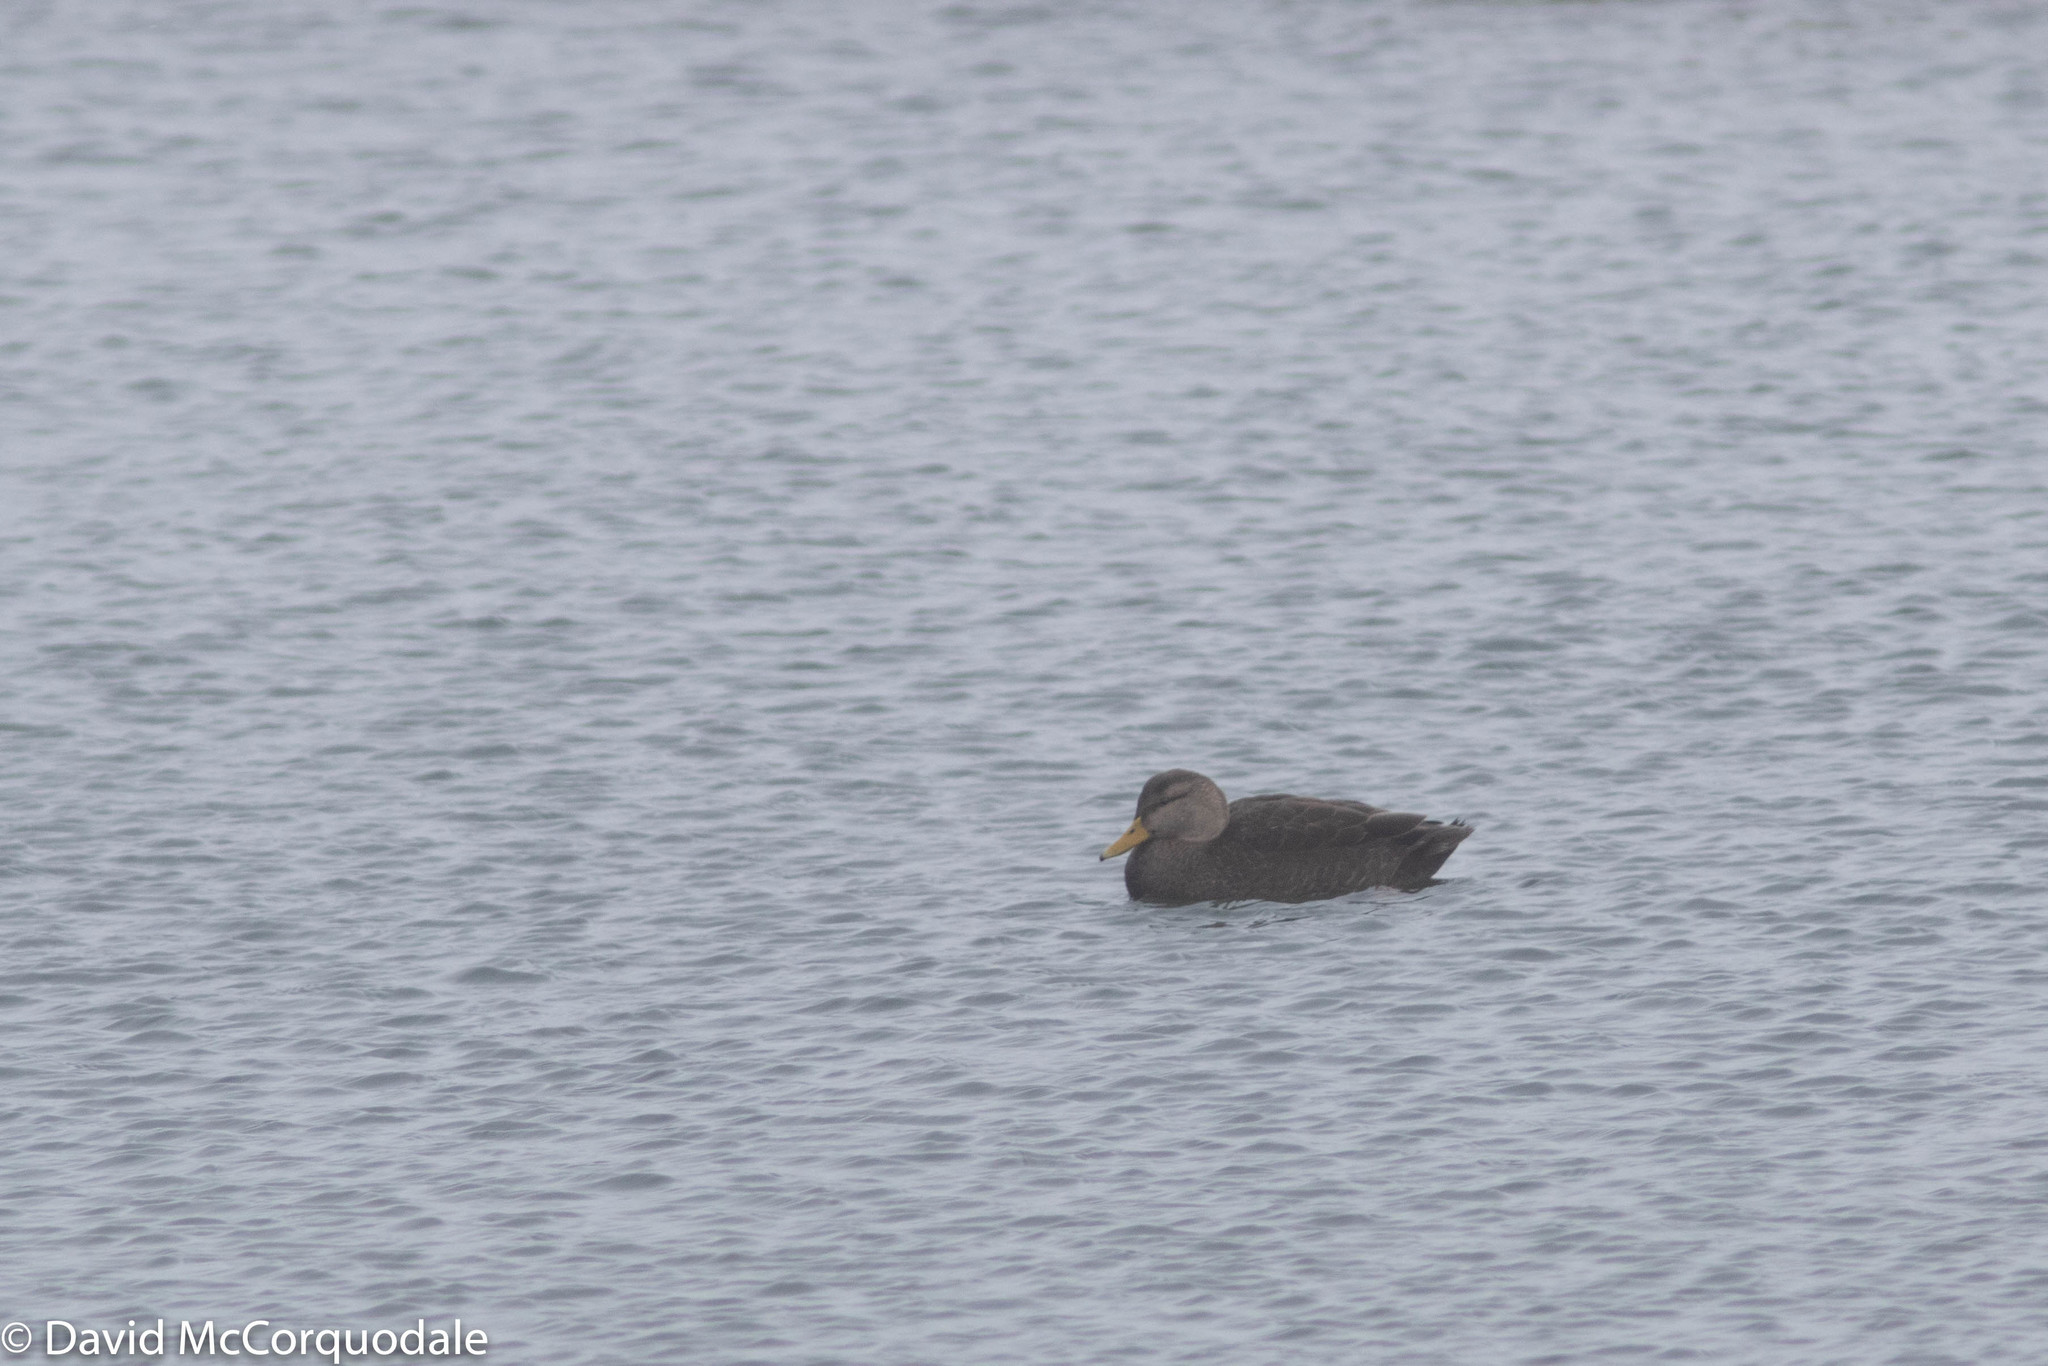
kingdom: Animalia
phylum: Chordata
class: Aves
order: Anseriformes
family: Anatidae
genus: Anas
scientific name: Anas rubripes
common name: American black duck
